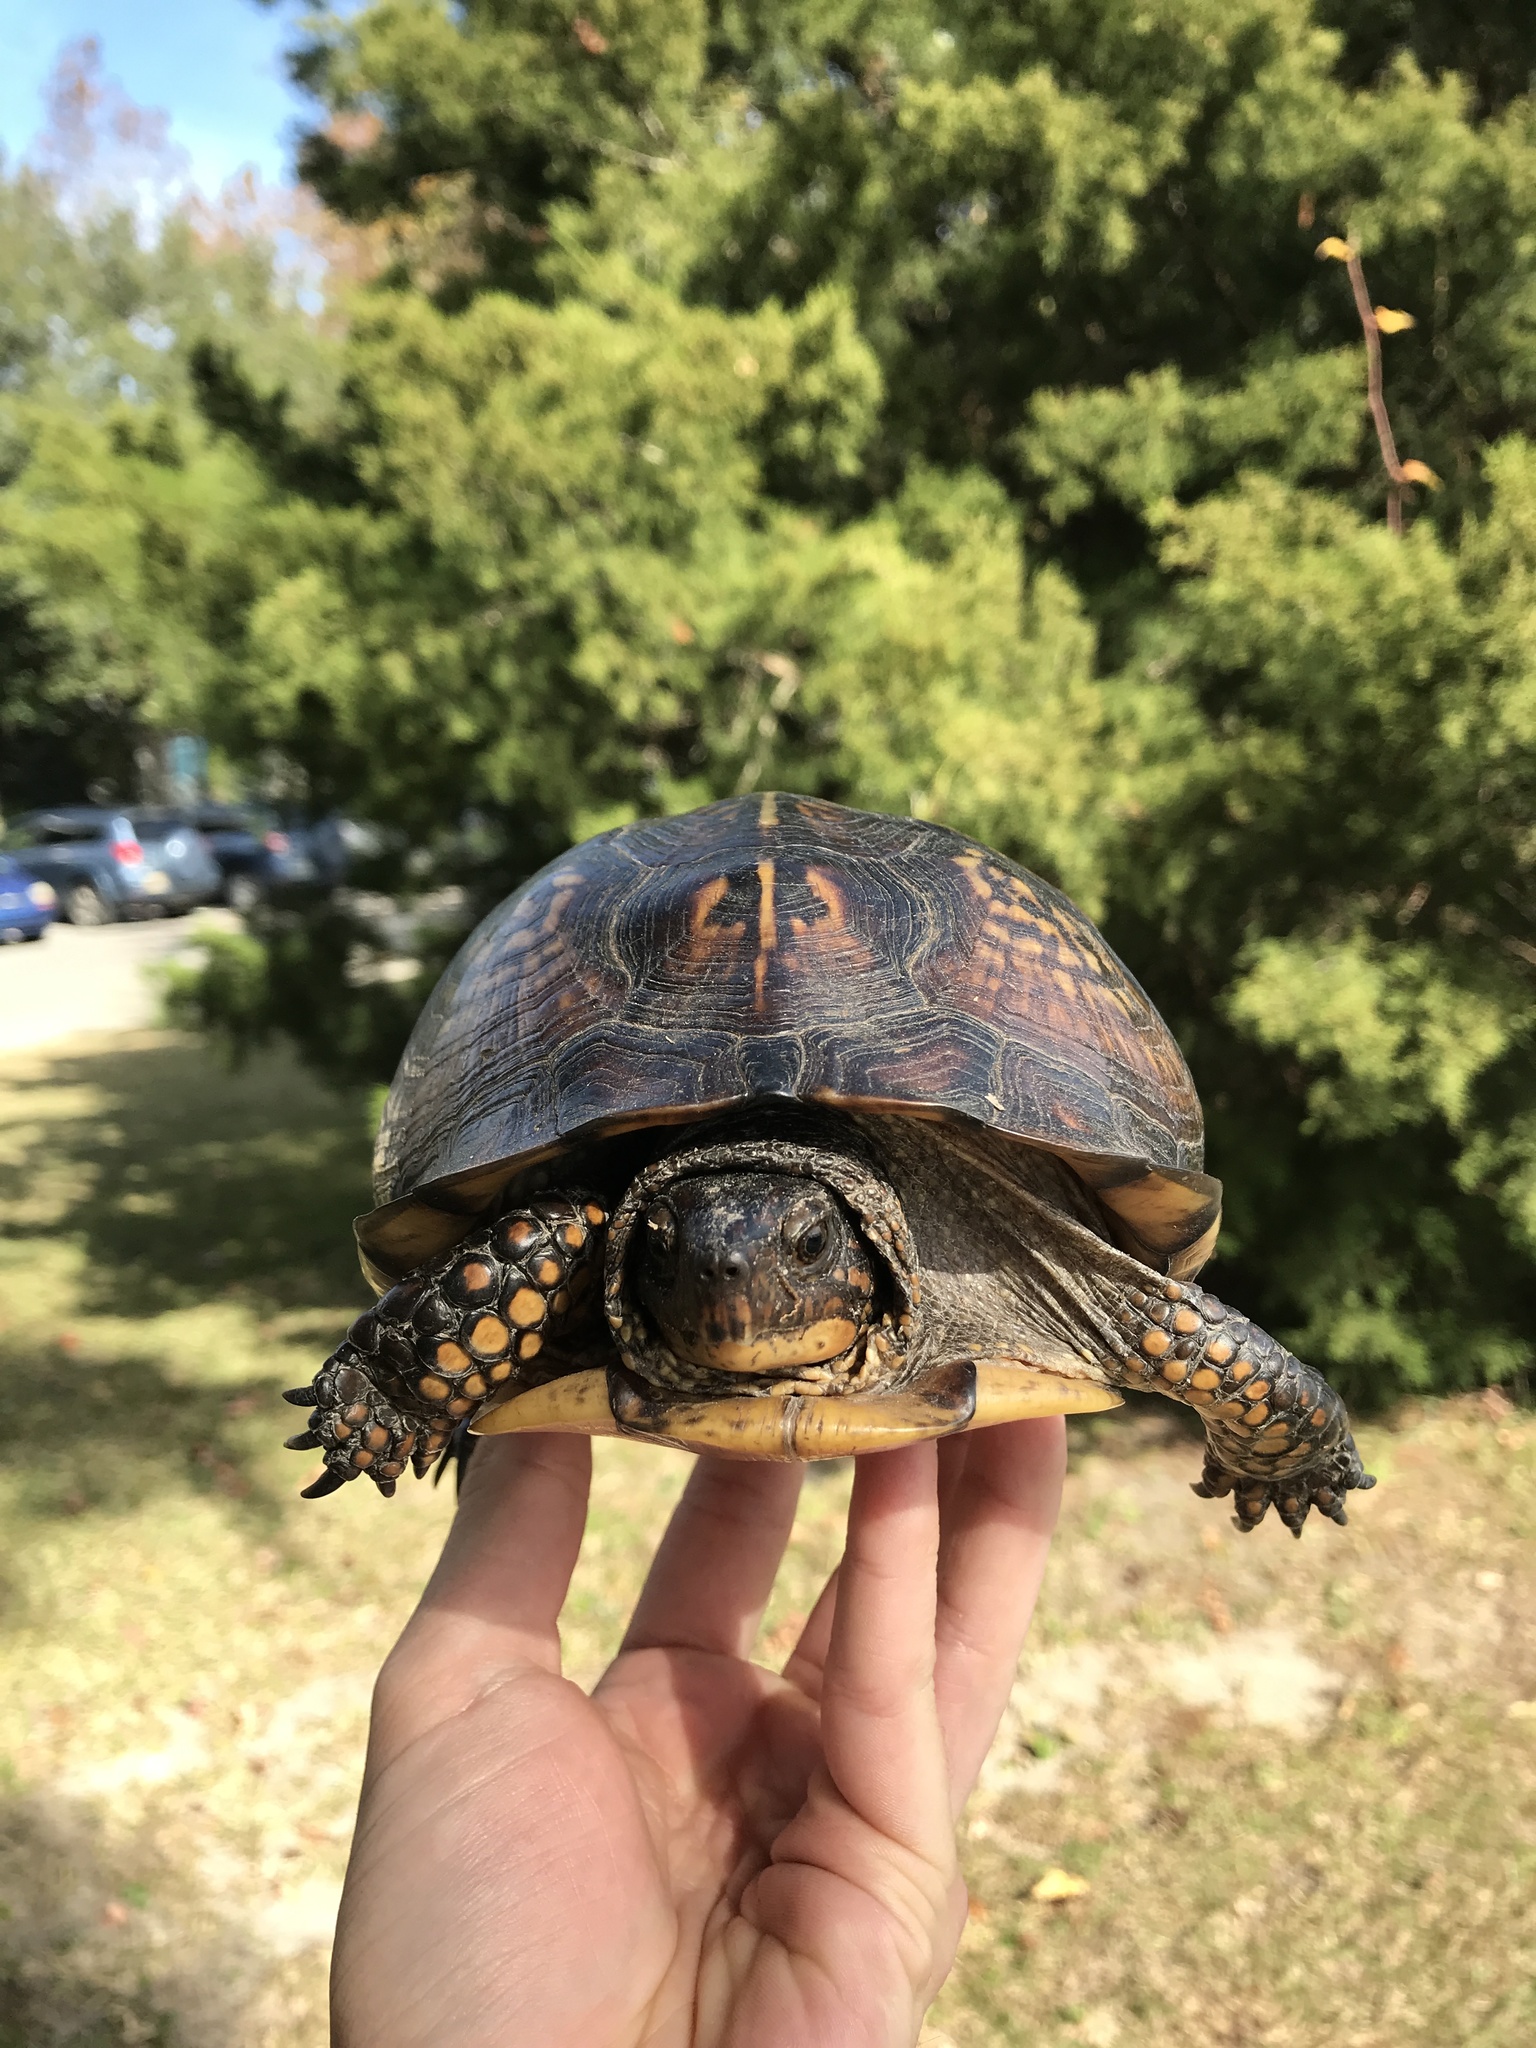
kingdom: Animalia
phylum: Chordata
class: Testudines
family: Emydidae
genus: Terrapene
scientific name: Terrapene carolina
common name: Common box turtle
